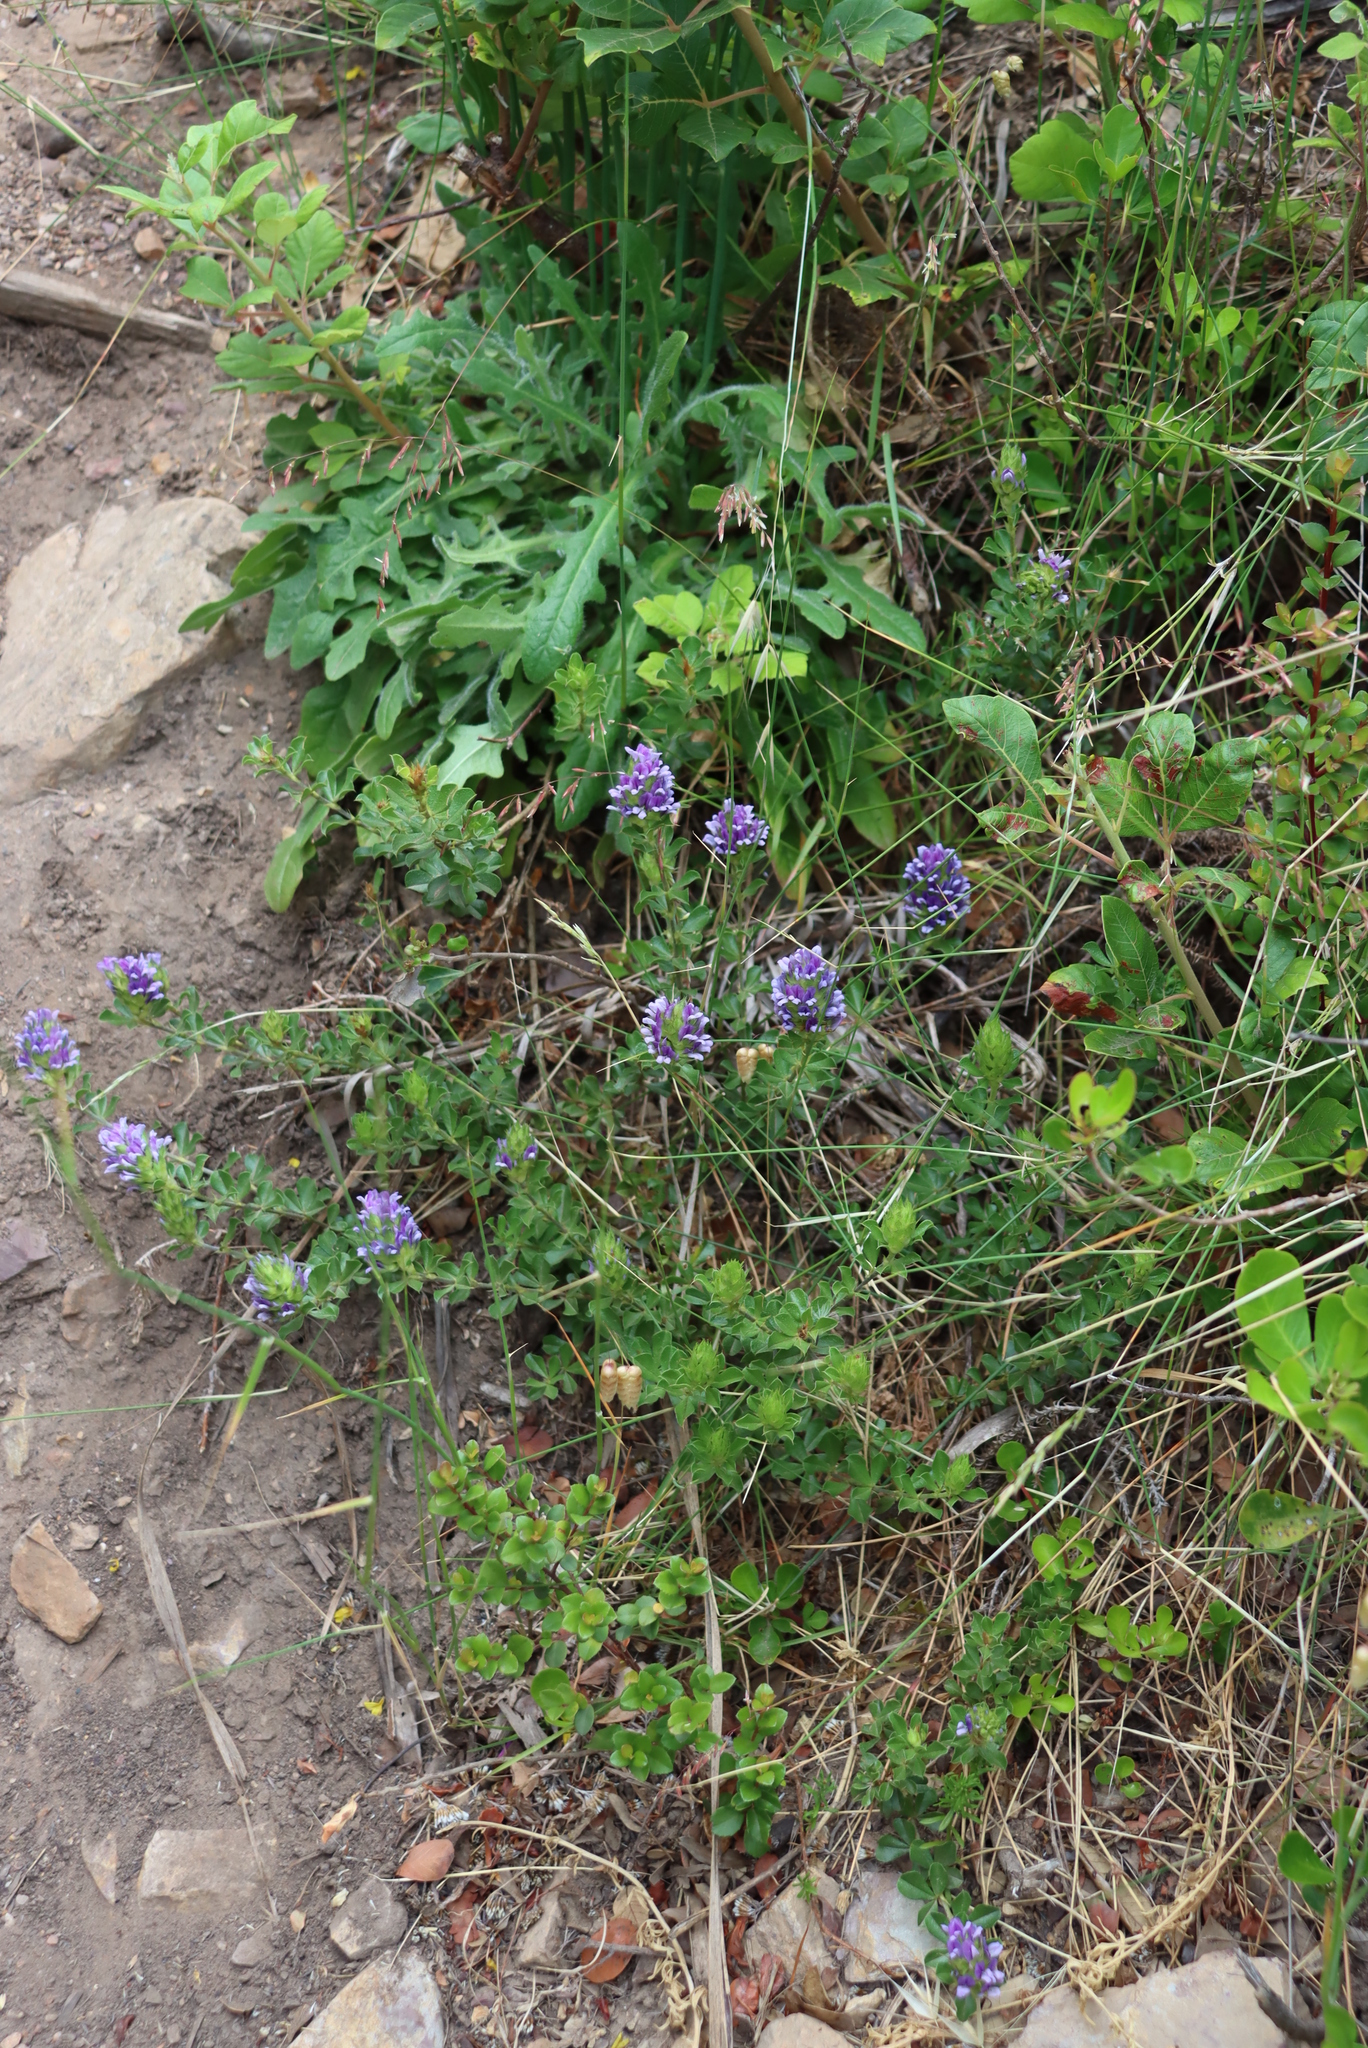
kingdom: Plantae
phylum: Tracheophyta
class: Magnoliopsida
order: Fabales
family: Fabaceae
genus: Psoralea
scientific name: Psoralea fruticans
